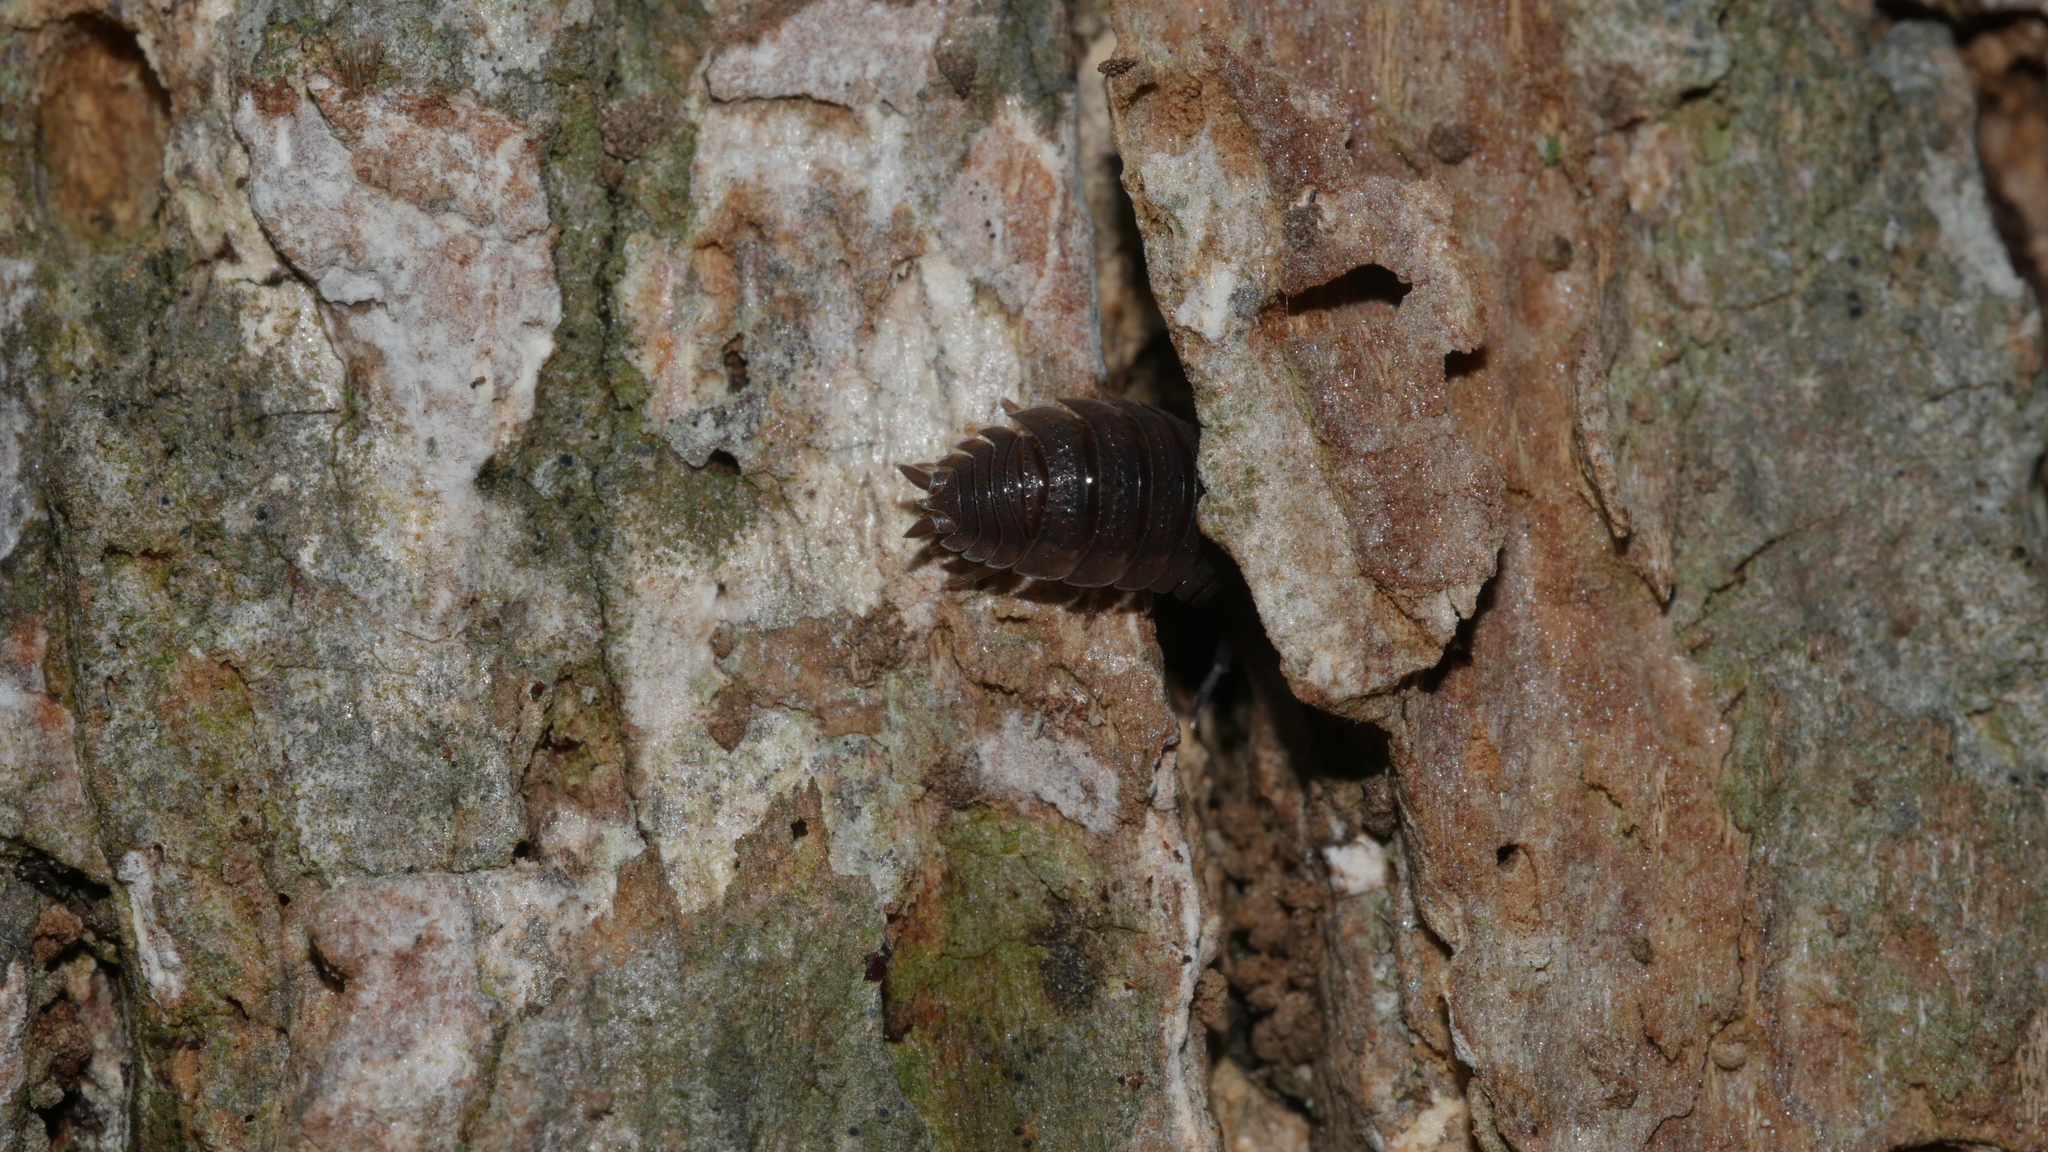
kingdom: Animalia
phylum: Arthropoda
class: Malacostraca
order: Isopoda
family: Porcellionidae
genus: Porcellio
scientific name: Porcellio scaber
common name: Common rough woodlouse
